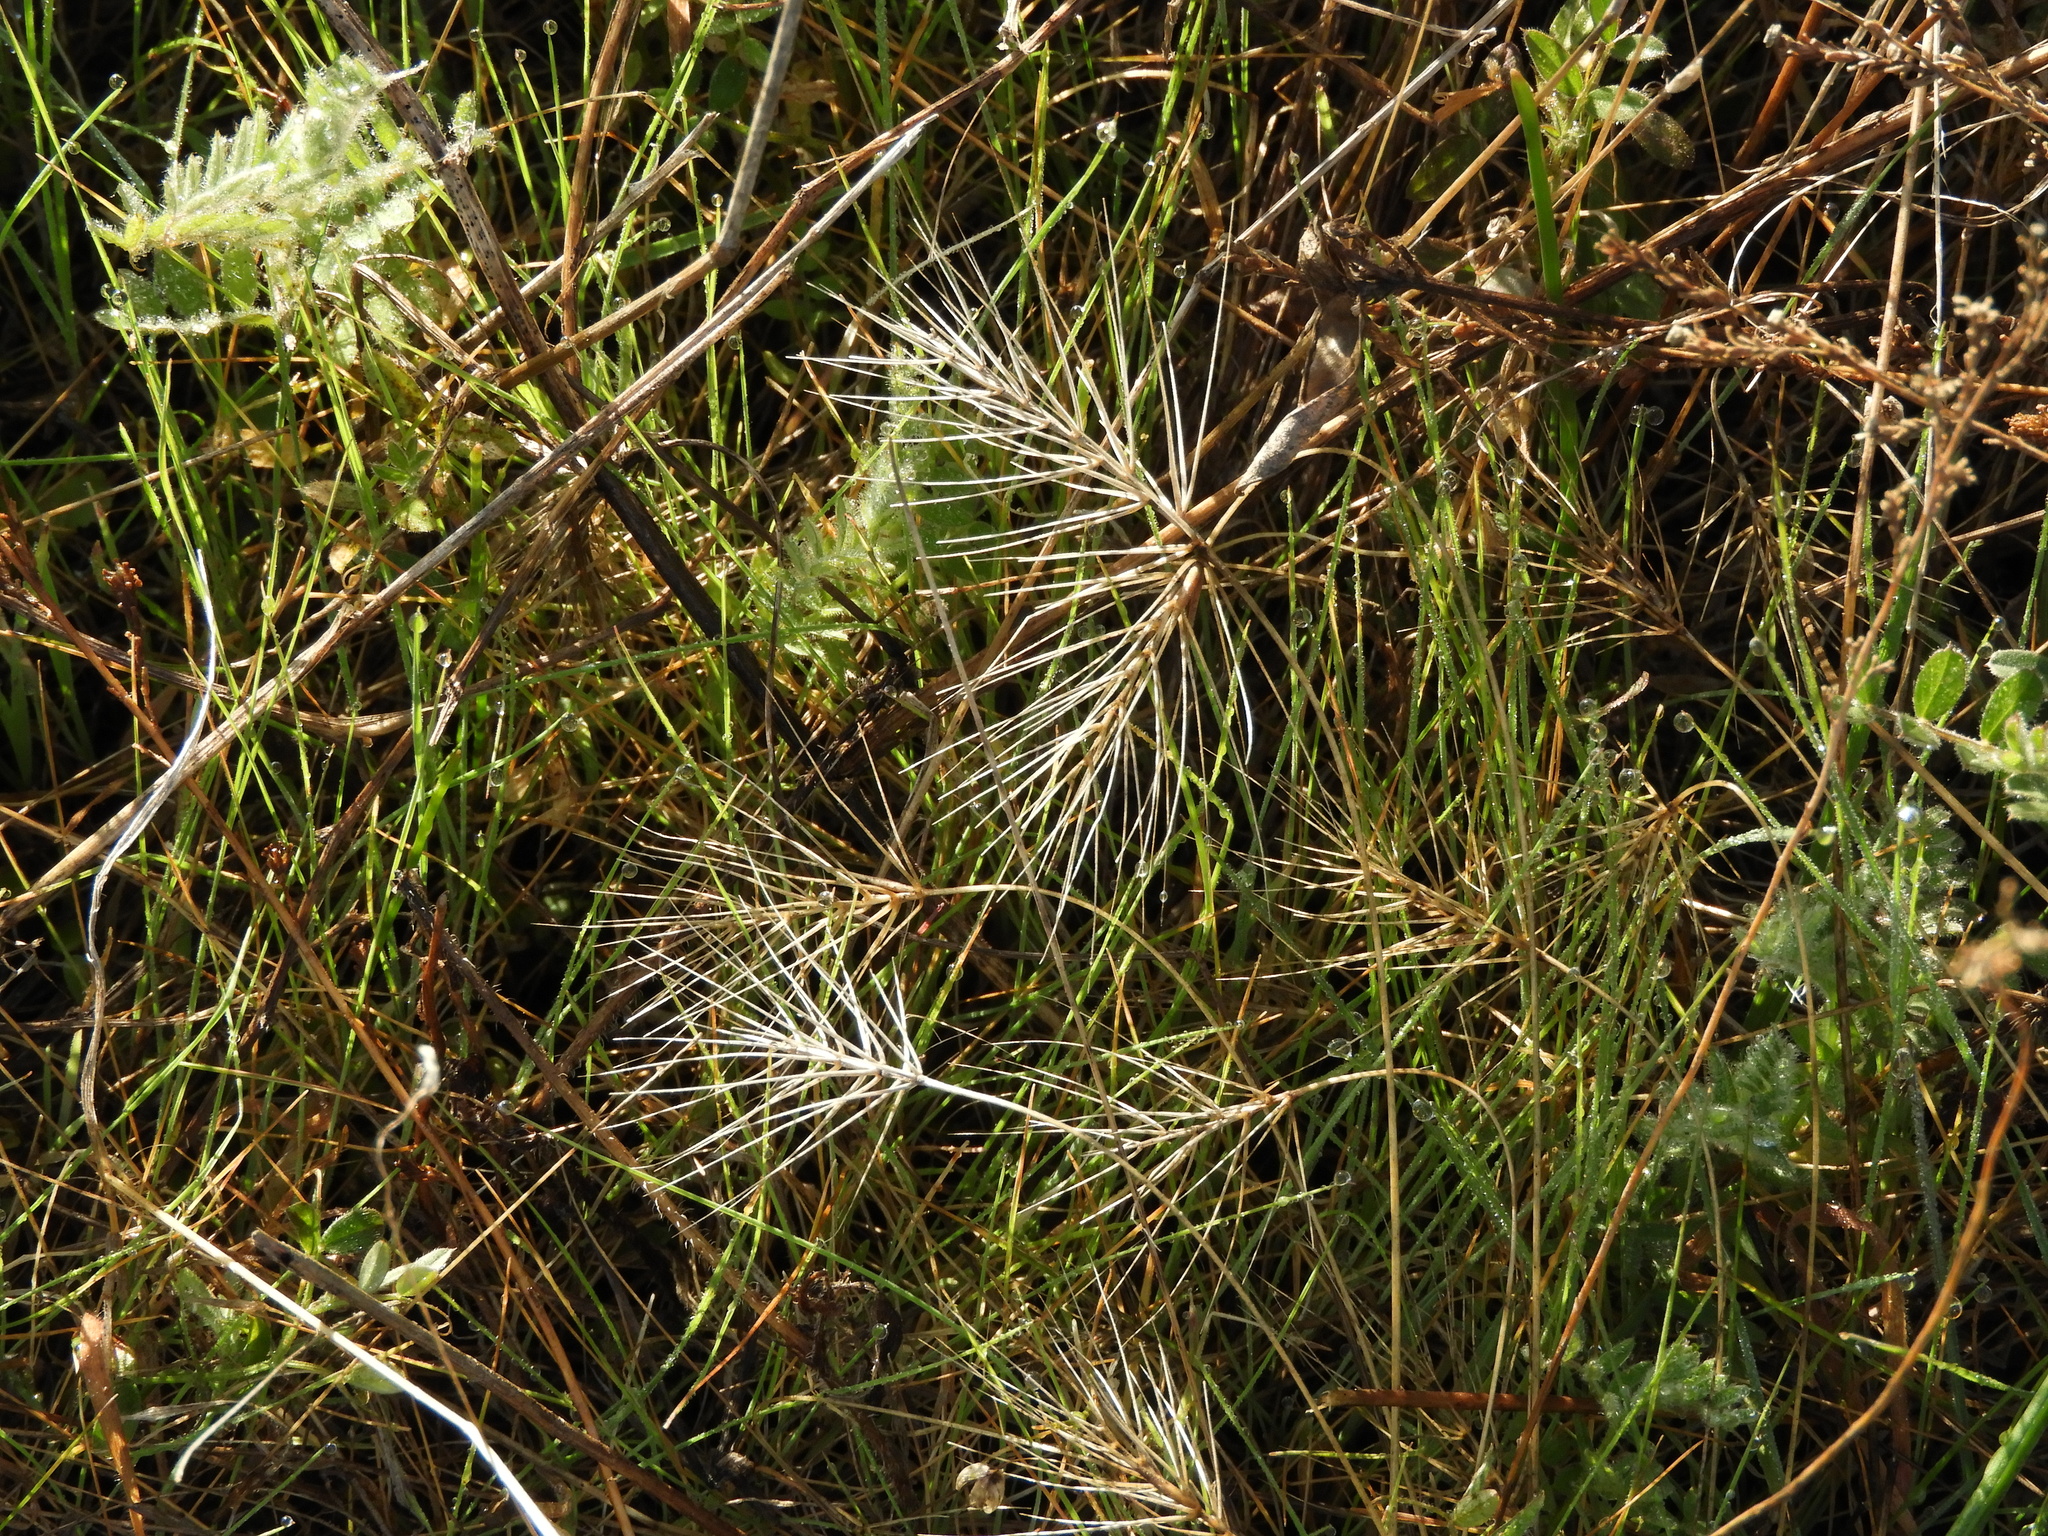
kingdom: Plantae
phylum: Tracheophyta
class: Liliopsida
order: Poales
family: Poaceae
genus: Taeniatherum
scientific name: Taeniatherum caput-medusae
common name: Medusahead
